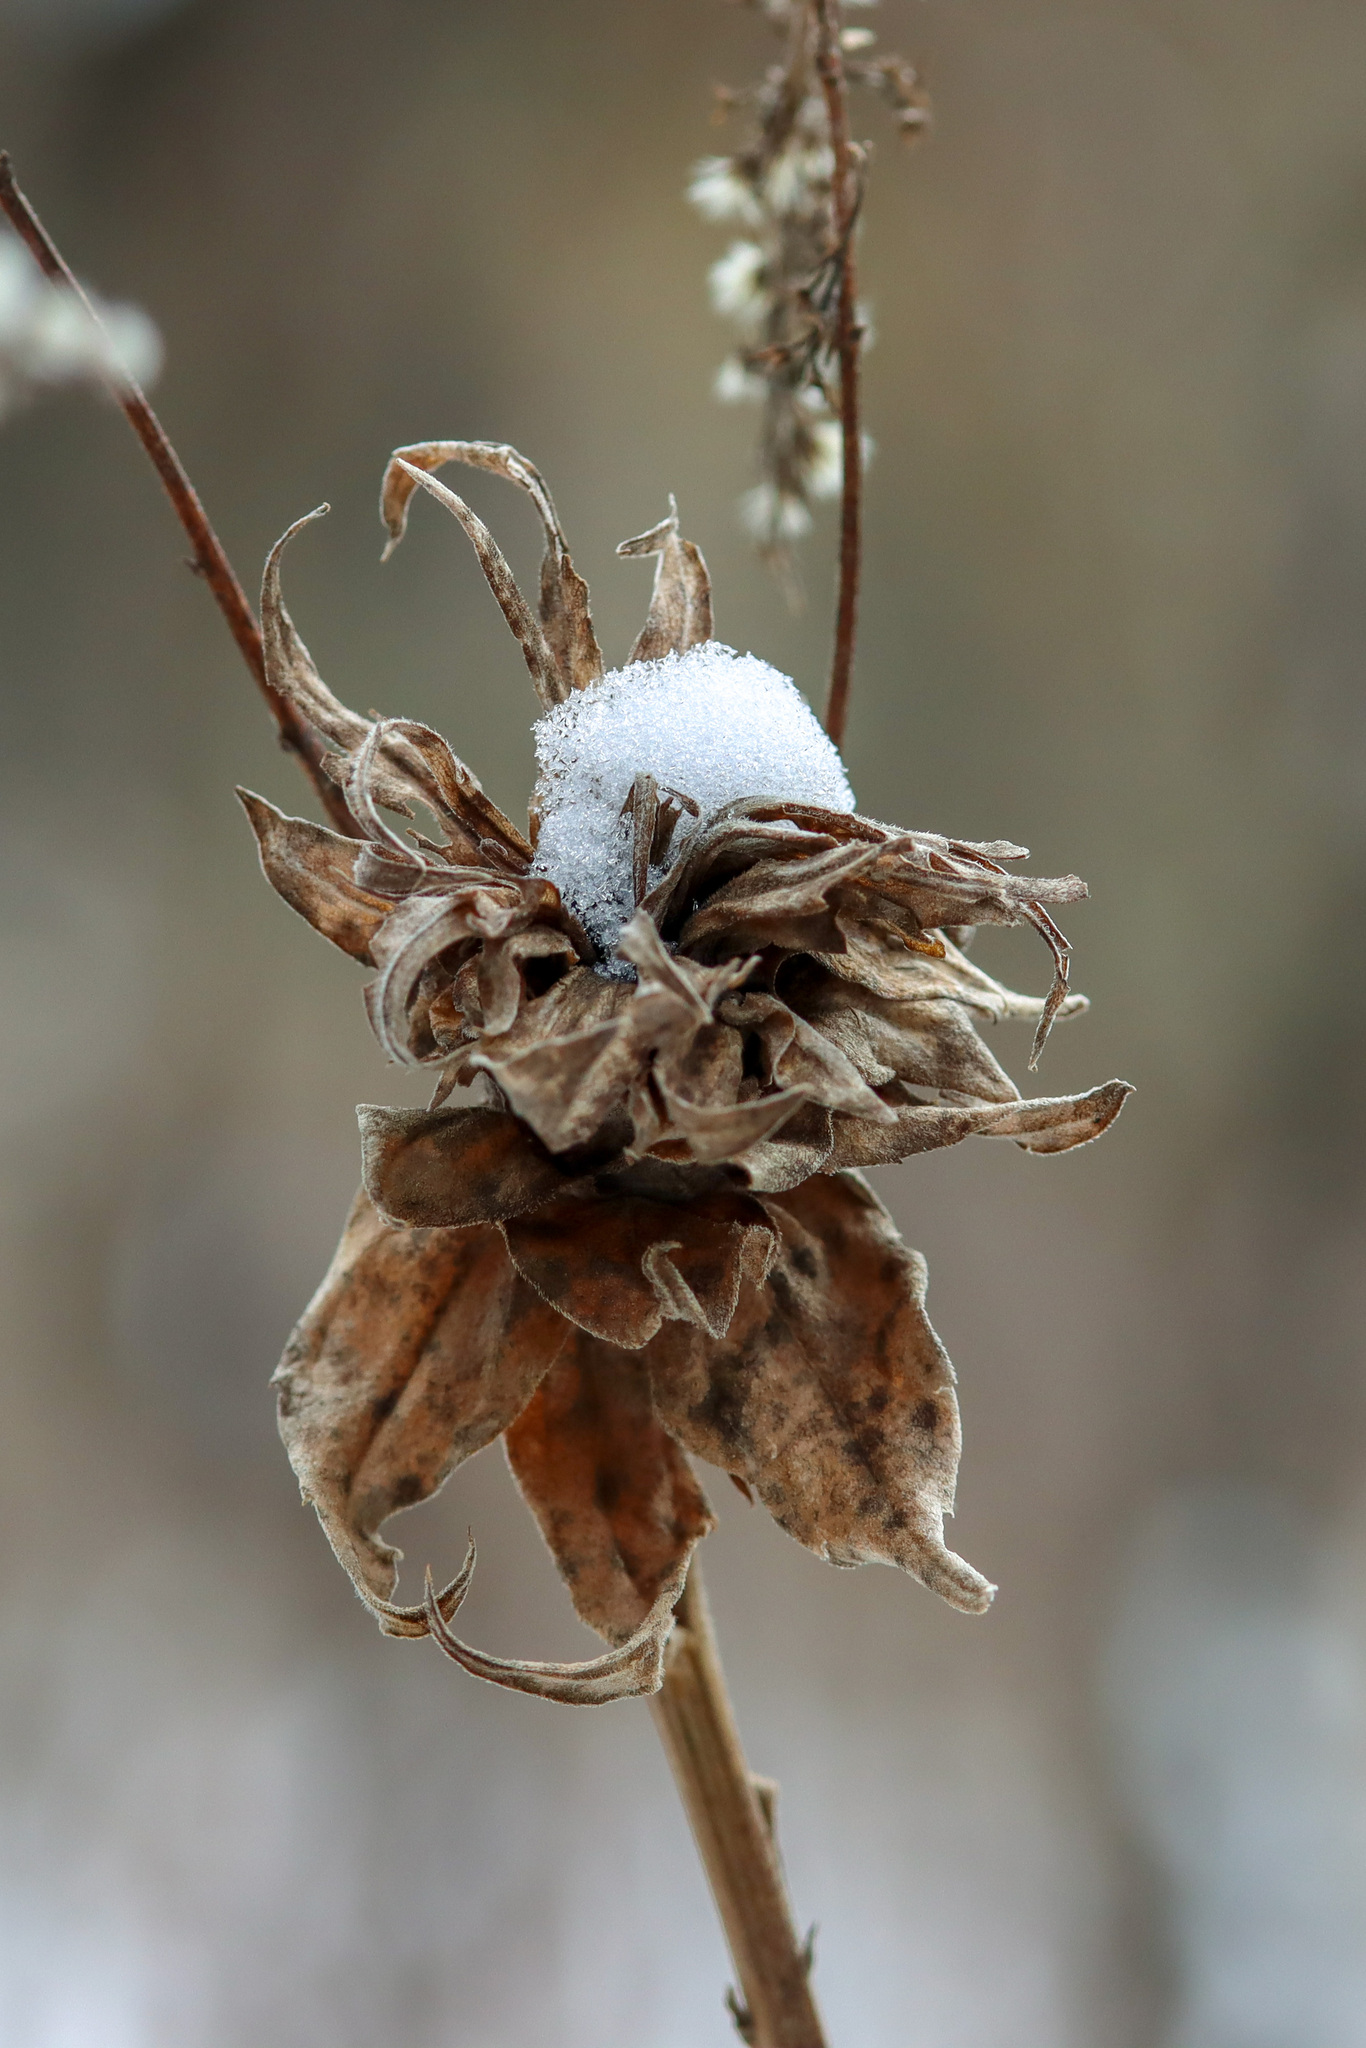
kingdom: Animalia
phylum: Arthropoda
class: Insecta
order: Diptera
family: Cecidomyiidae
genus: Rhopalomyia
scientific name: Rhopalomyia solidaginis
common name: Goldenrod bunch gall midge
